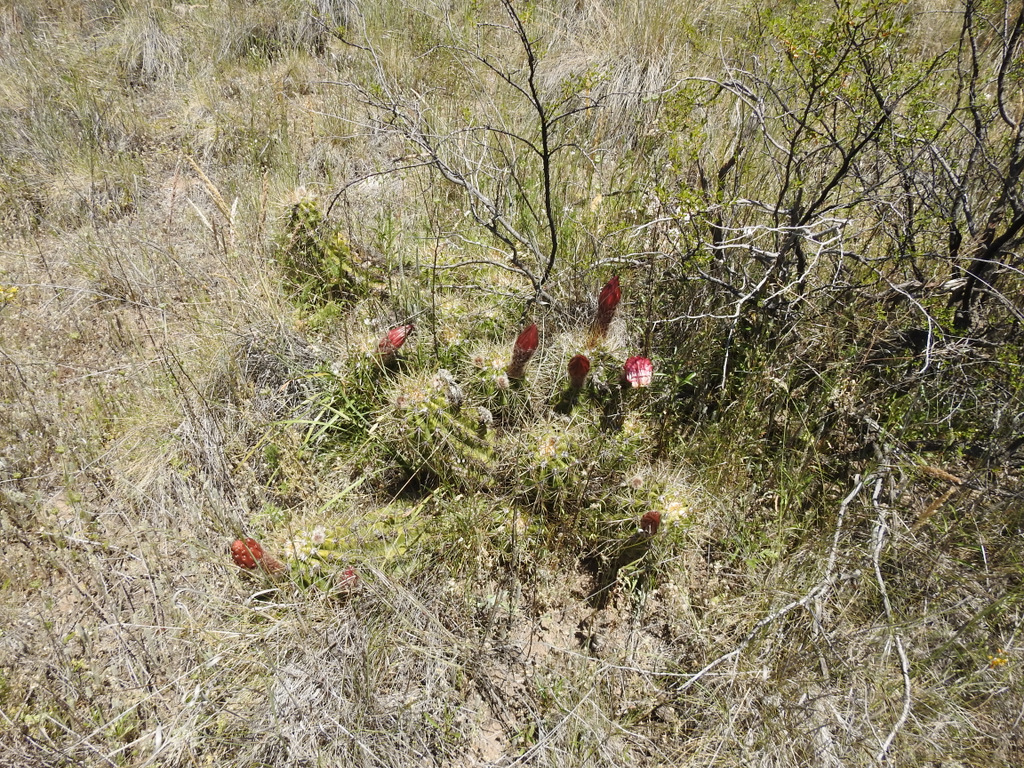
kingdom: Plantae
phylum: Tracheophyta
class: Magnoliopsida
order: Caryophyllales
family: Cactaceae
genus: Soehrensia
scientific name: Soehrensia candicans
